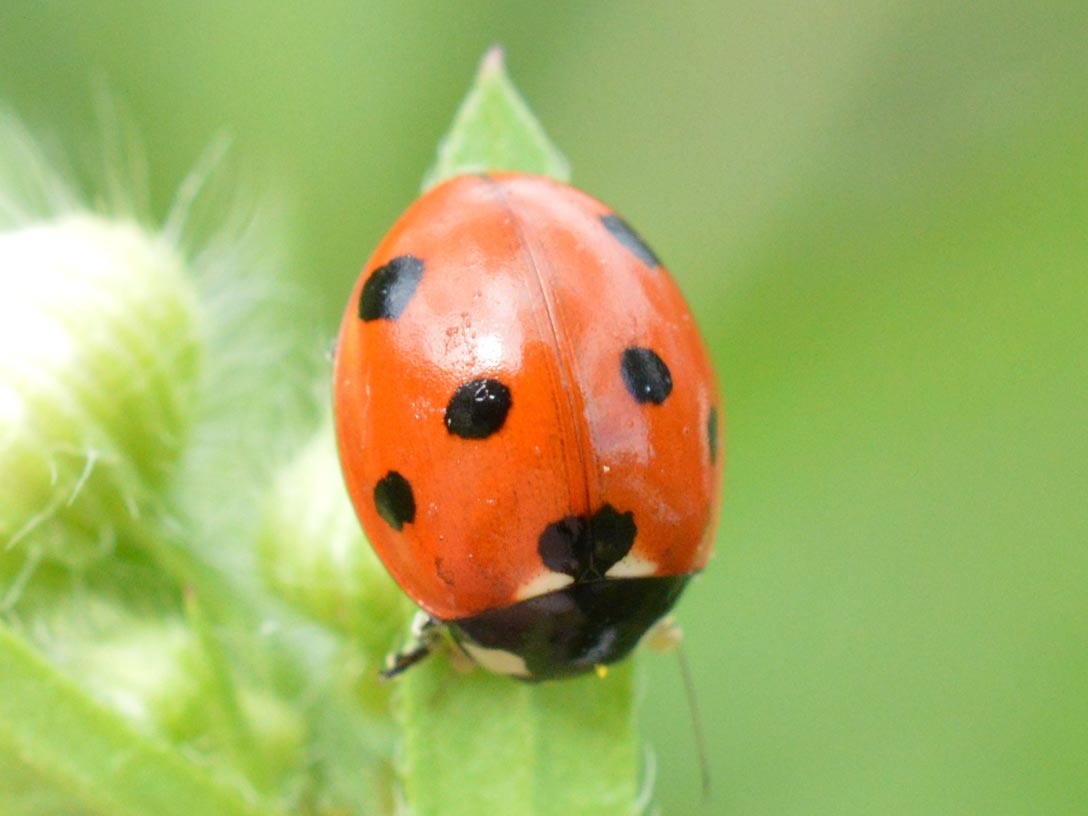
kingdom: Animalia
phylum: Arthropoda
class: Insecta
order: Coleoptera
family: Coccinellidae
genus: Coccinella
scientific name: Coccinella septempunctata
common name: Sevenspotted lady beetle
